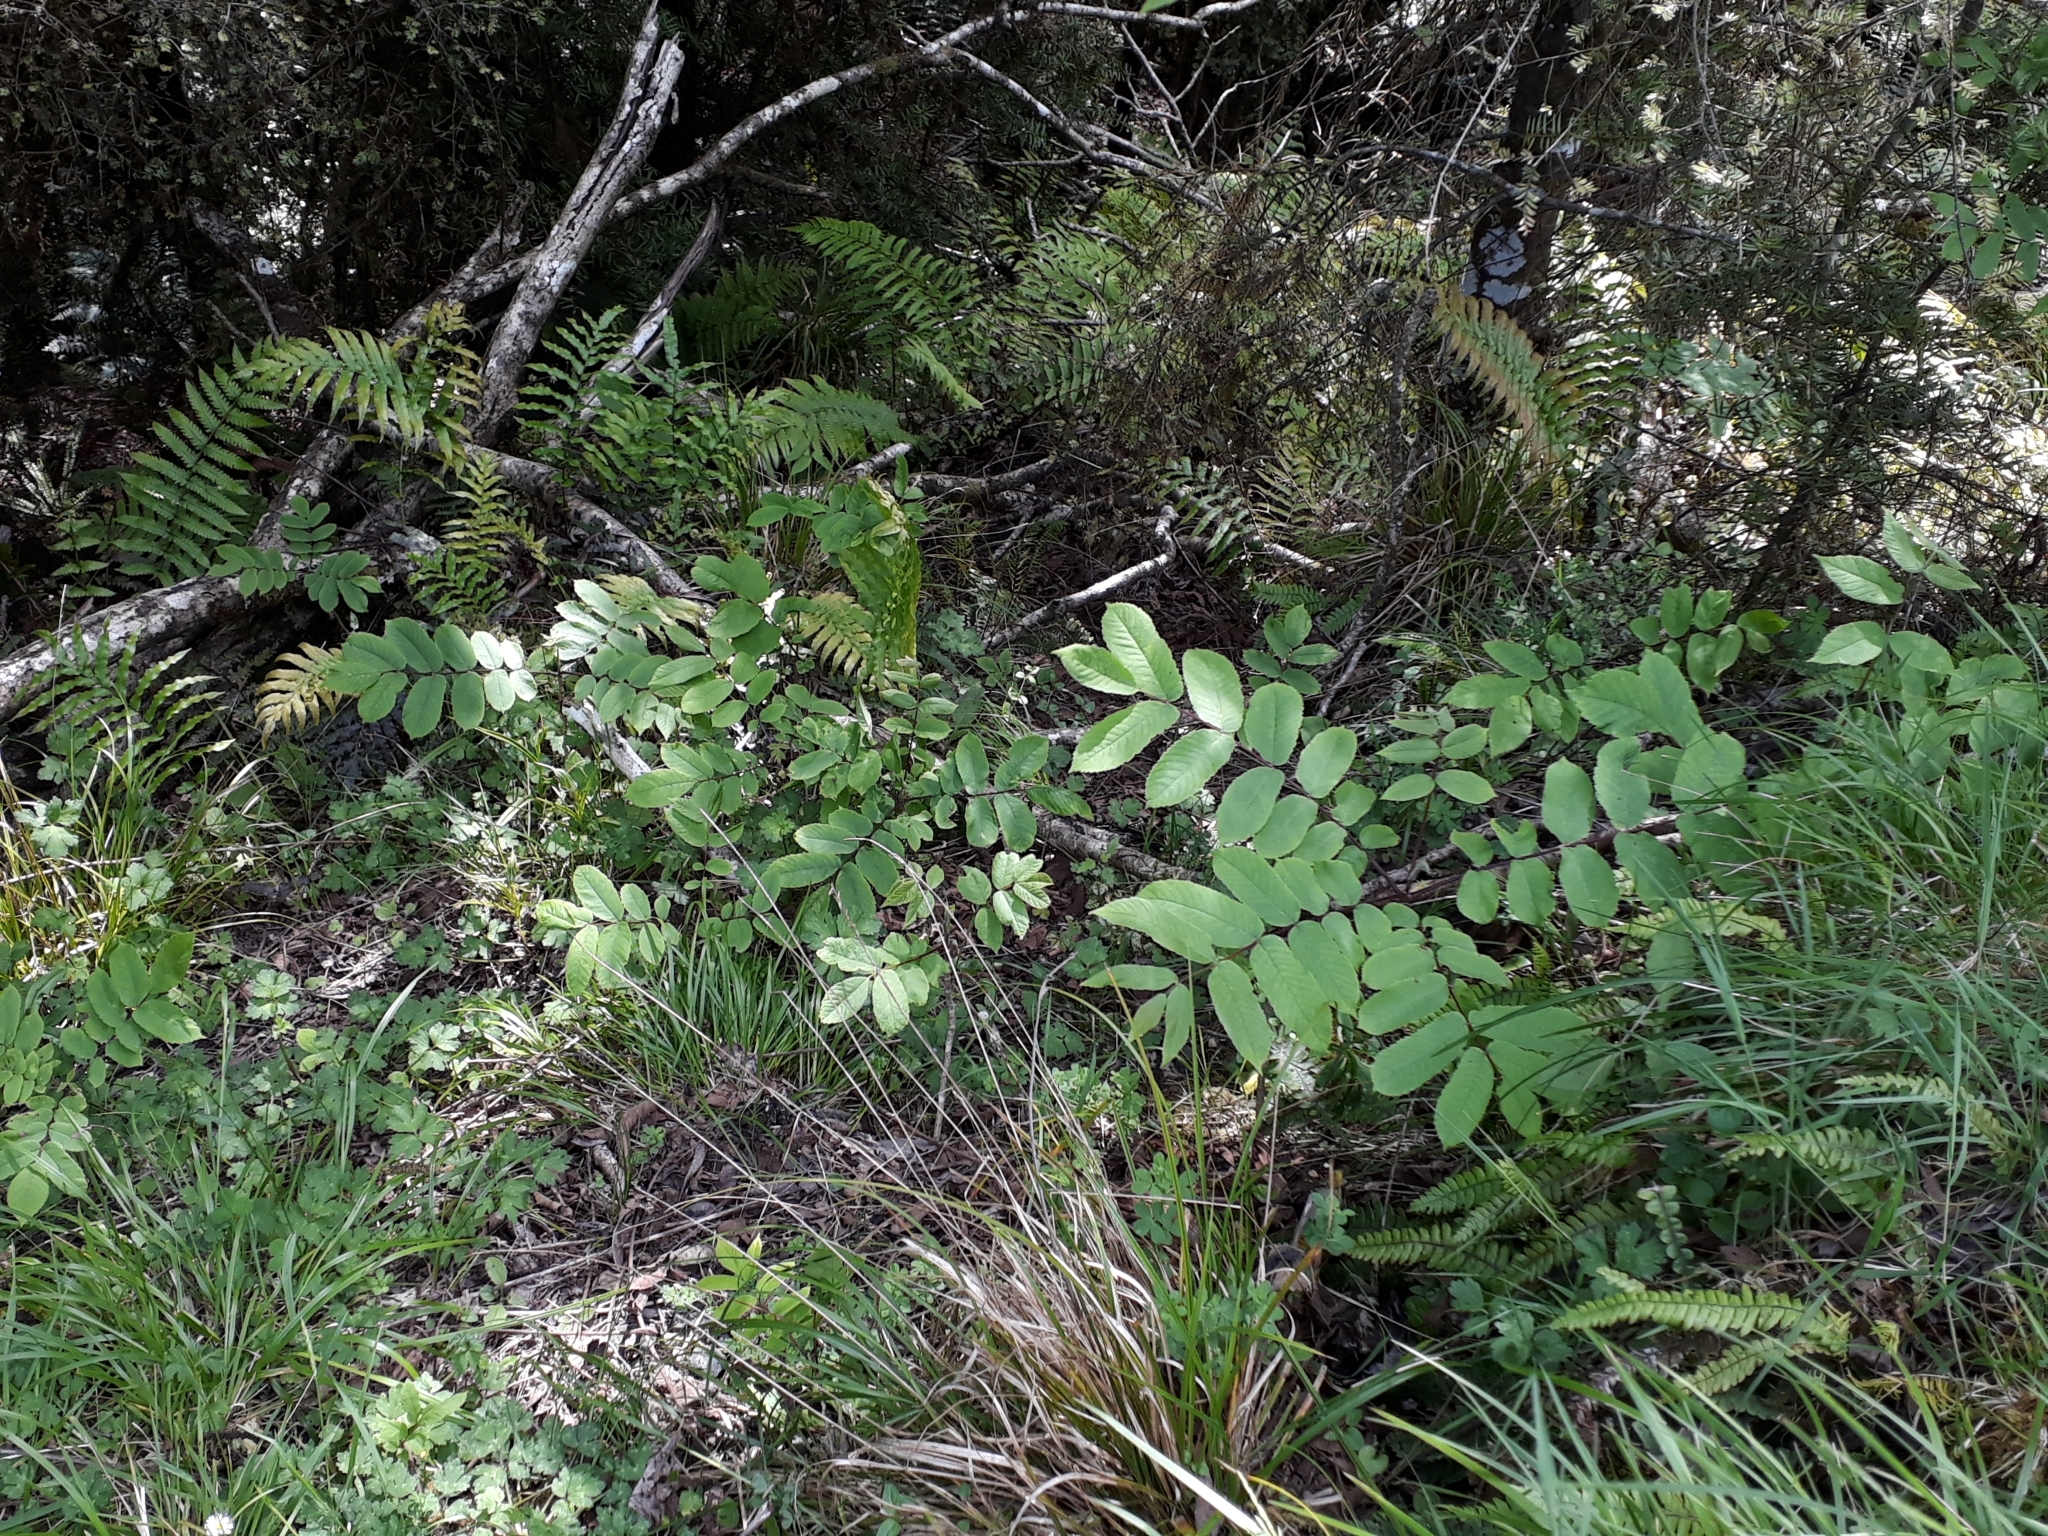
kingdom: Plantae
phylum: Tracheophyta
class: Magnoliopsida
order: Fagales
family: Juglandaceae
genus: Juglans
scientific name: Juglans ailantifolia
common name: Japanese walnut
